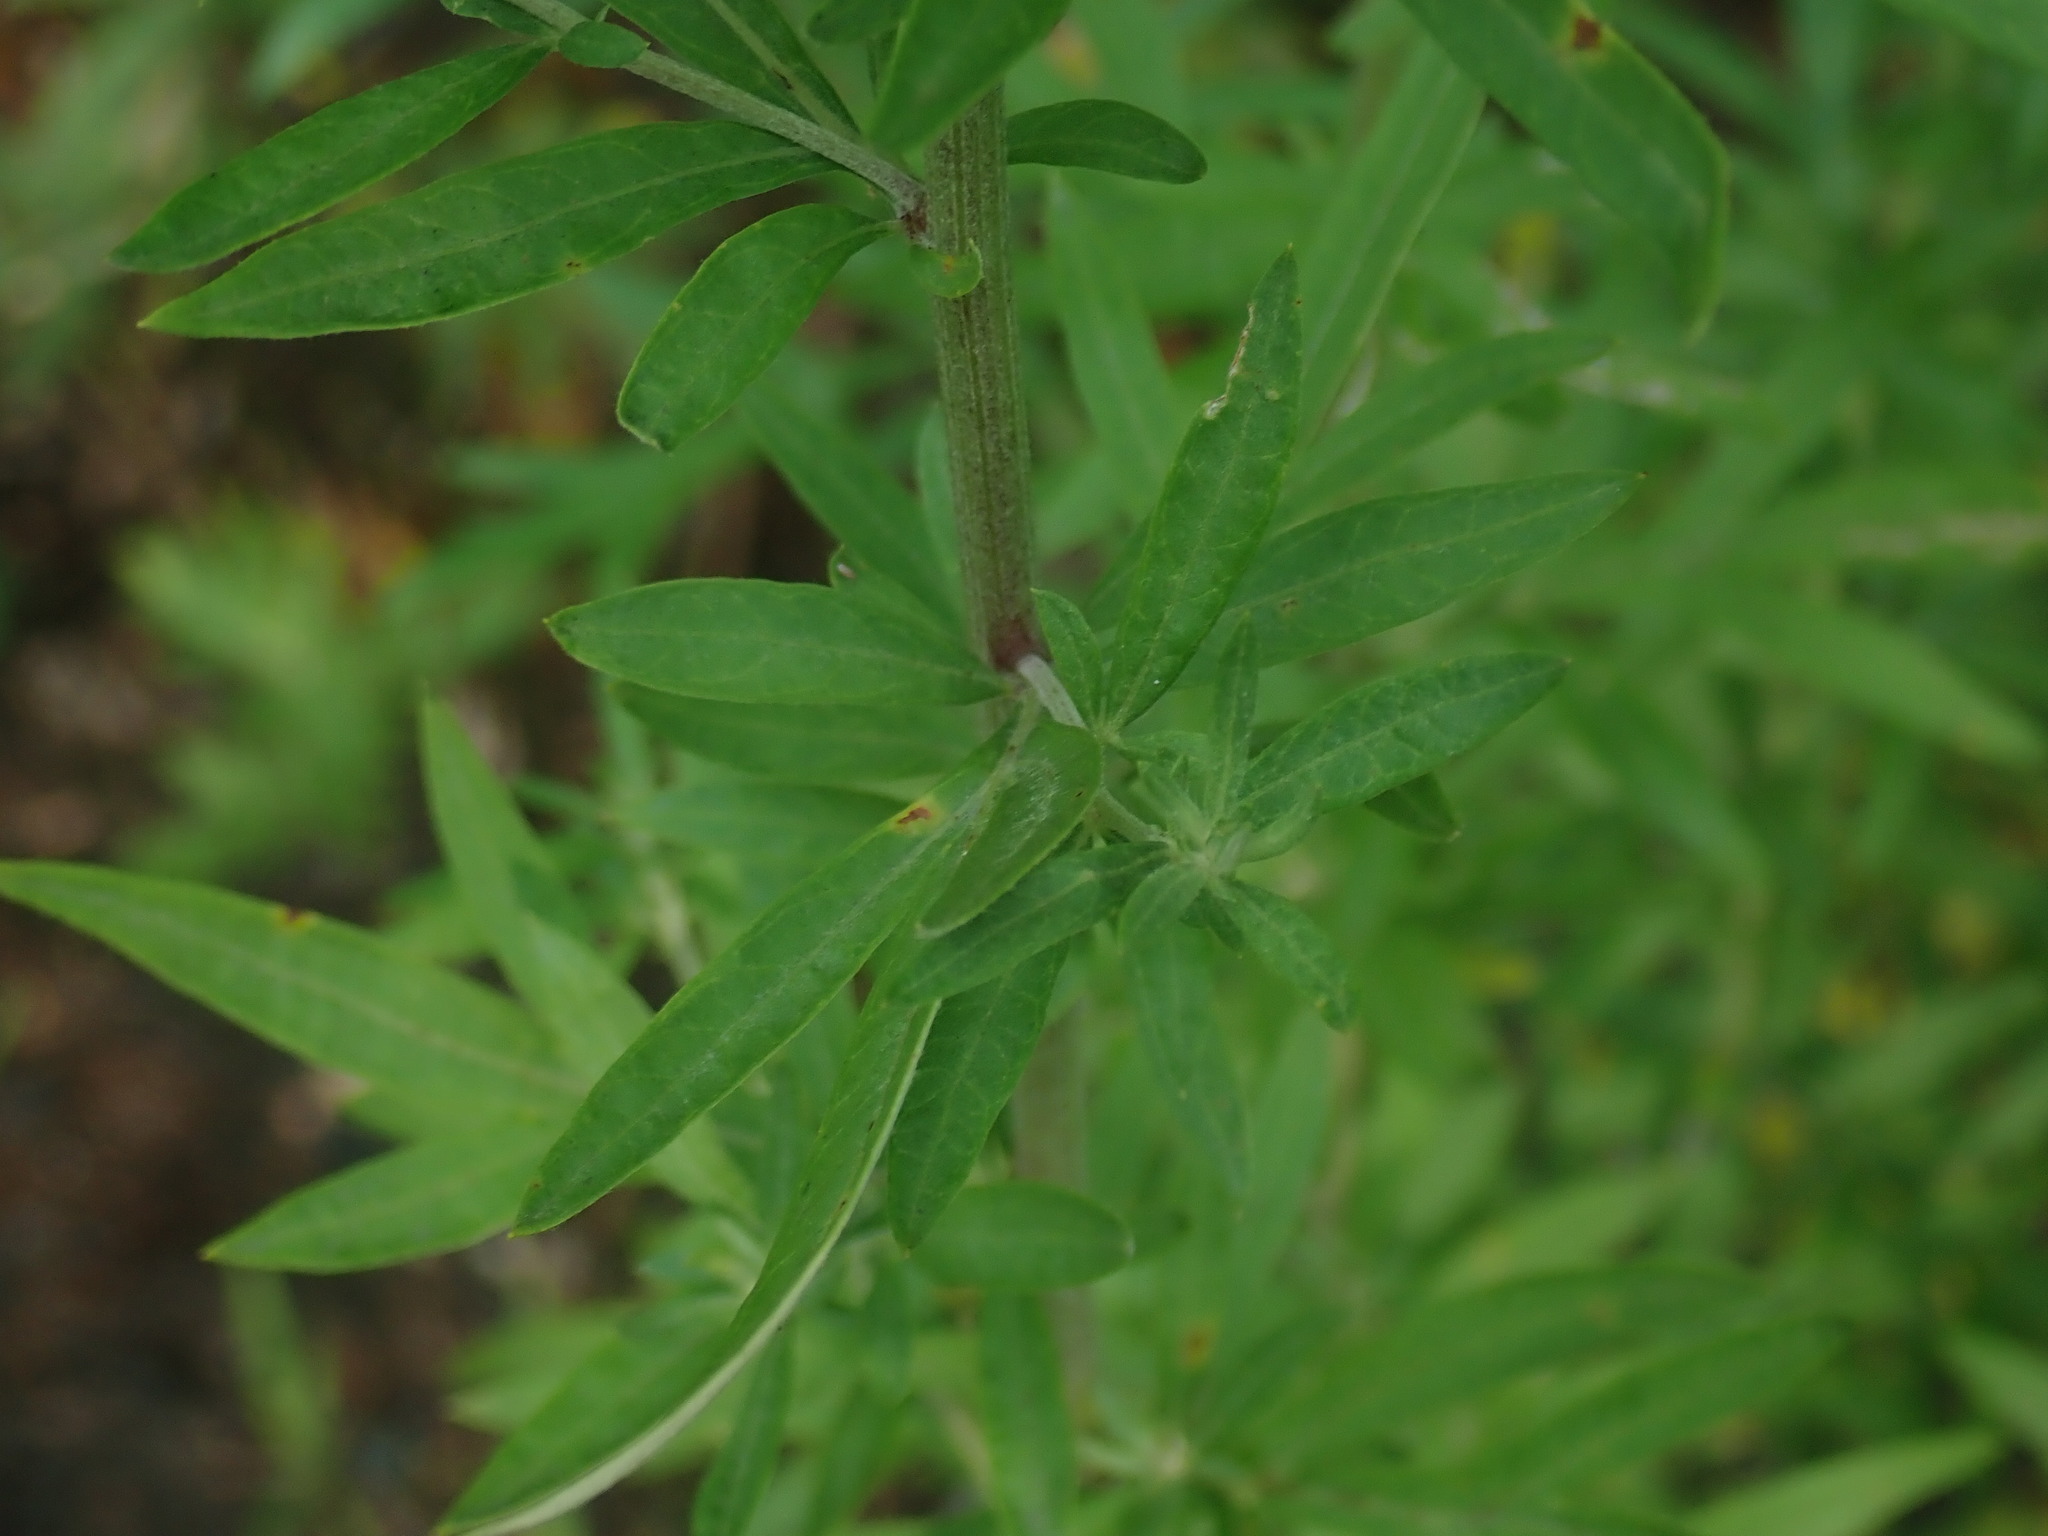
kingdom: Plantae
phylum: Tracheophyta
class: Magnoliopsida
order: Asterales
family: Asteraceae
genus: Artemisia
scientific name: Artemisia vulgaris
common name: Mugwort
